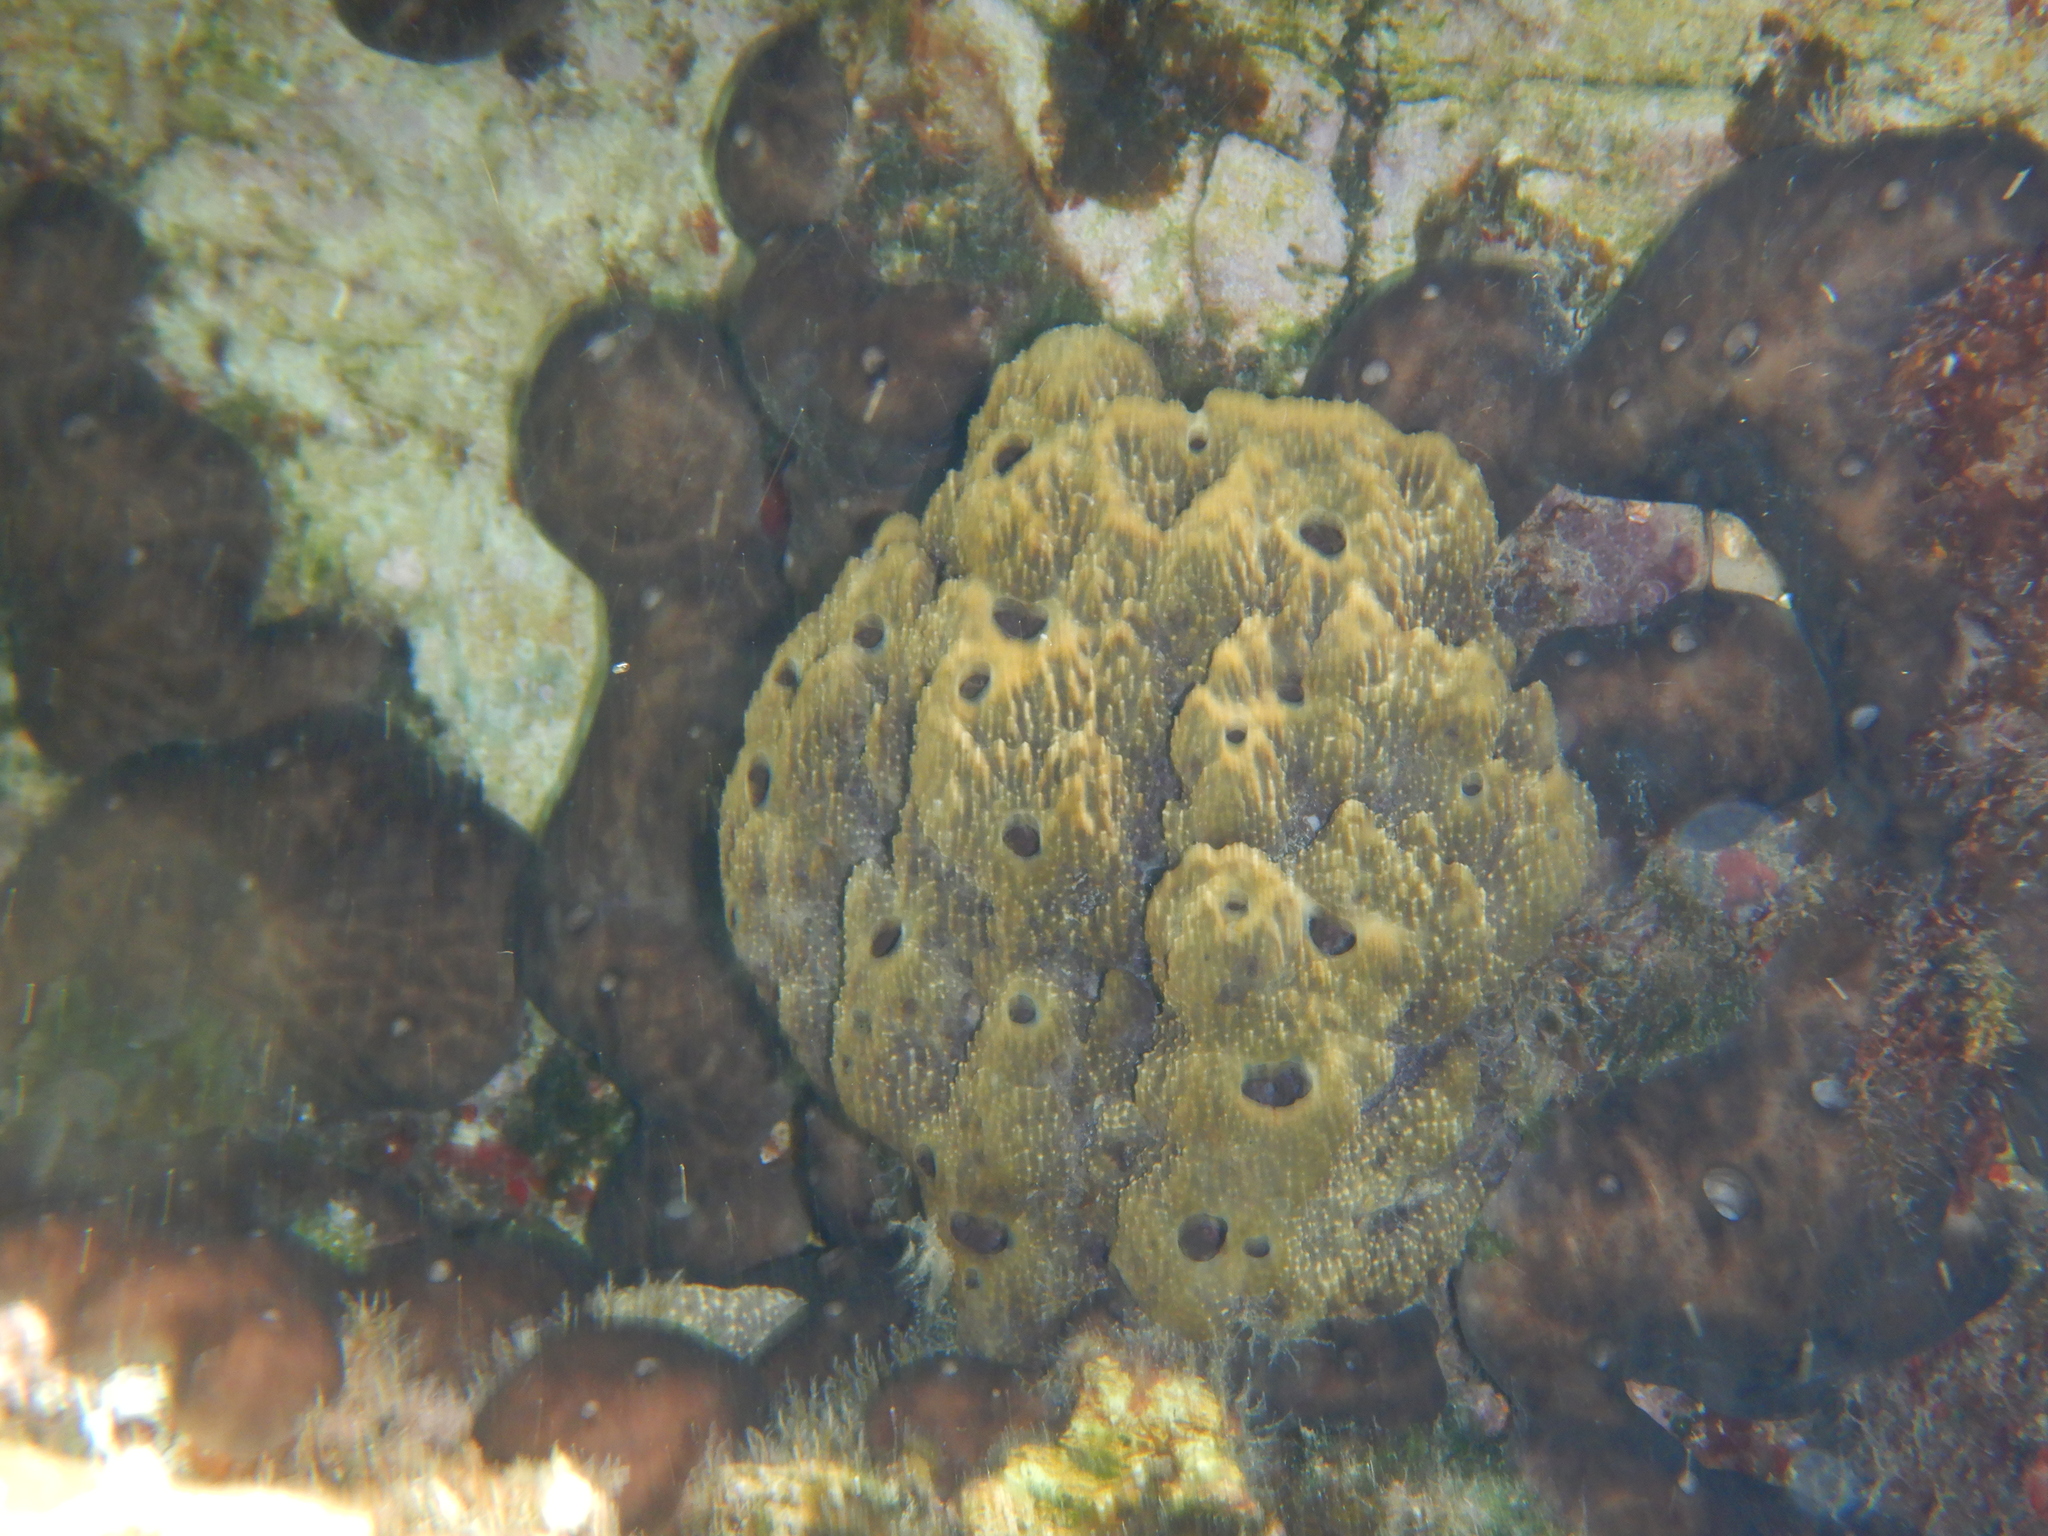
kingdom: Animalia
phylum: Porifera
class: Demospongiae
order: Dictyoceratida
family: Irciniidae
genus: Sarcotragus
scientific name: Sarcotragus fasciculatus
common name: Stinker sponge
